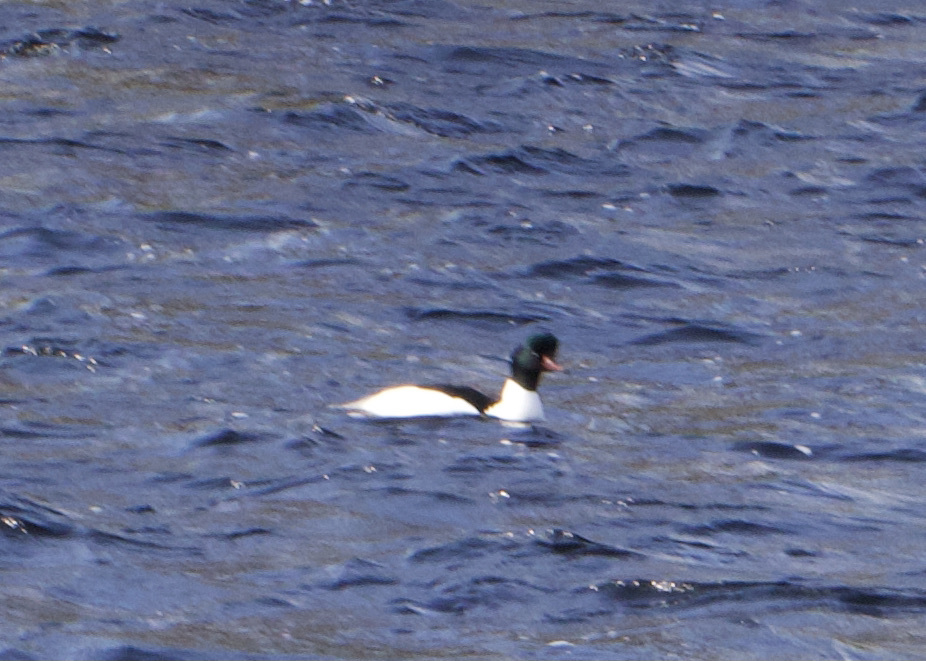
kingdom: Animalia
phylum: Chordata
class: Aves
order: Anseriformes
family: Anatidae
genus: Mergus
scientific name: Mergus merganser
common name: Common merganser
